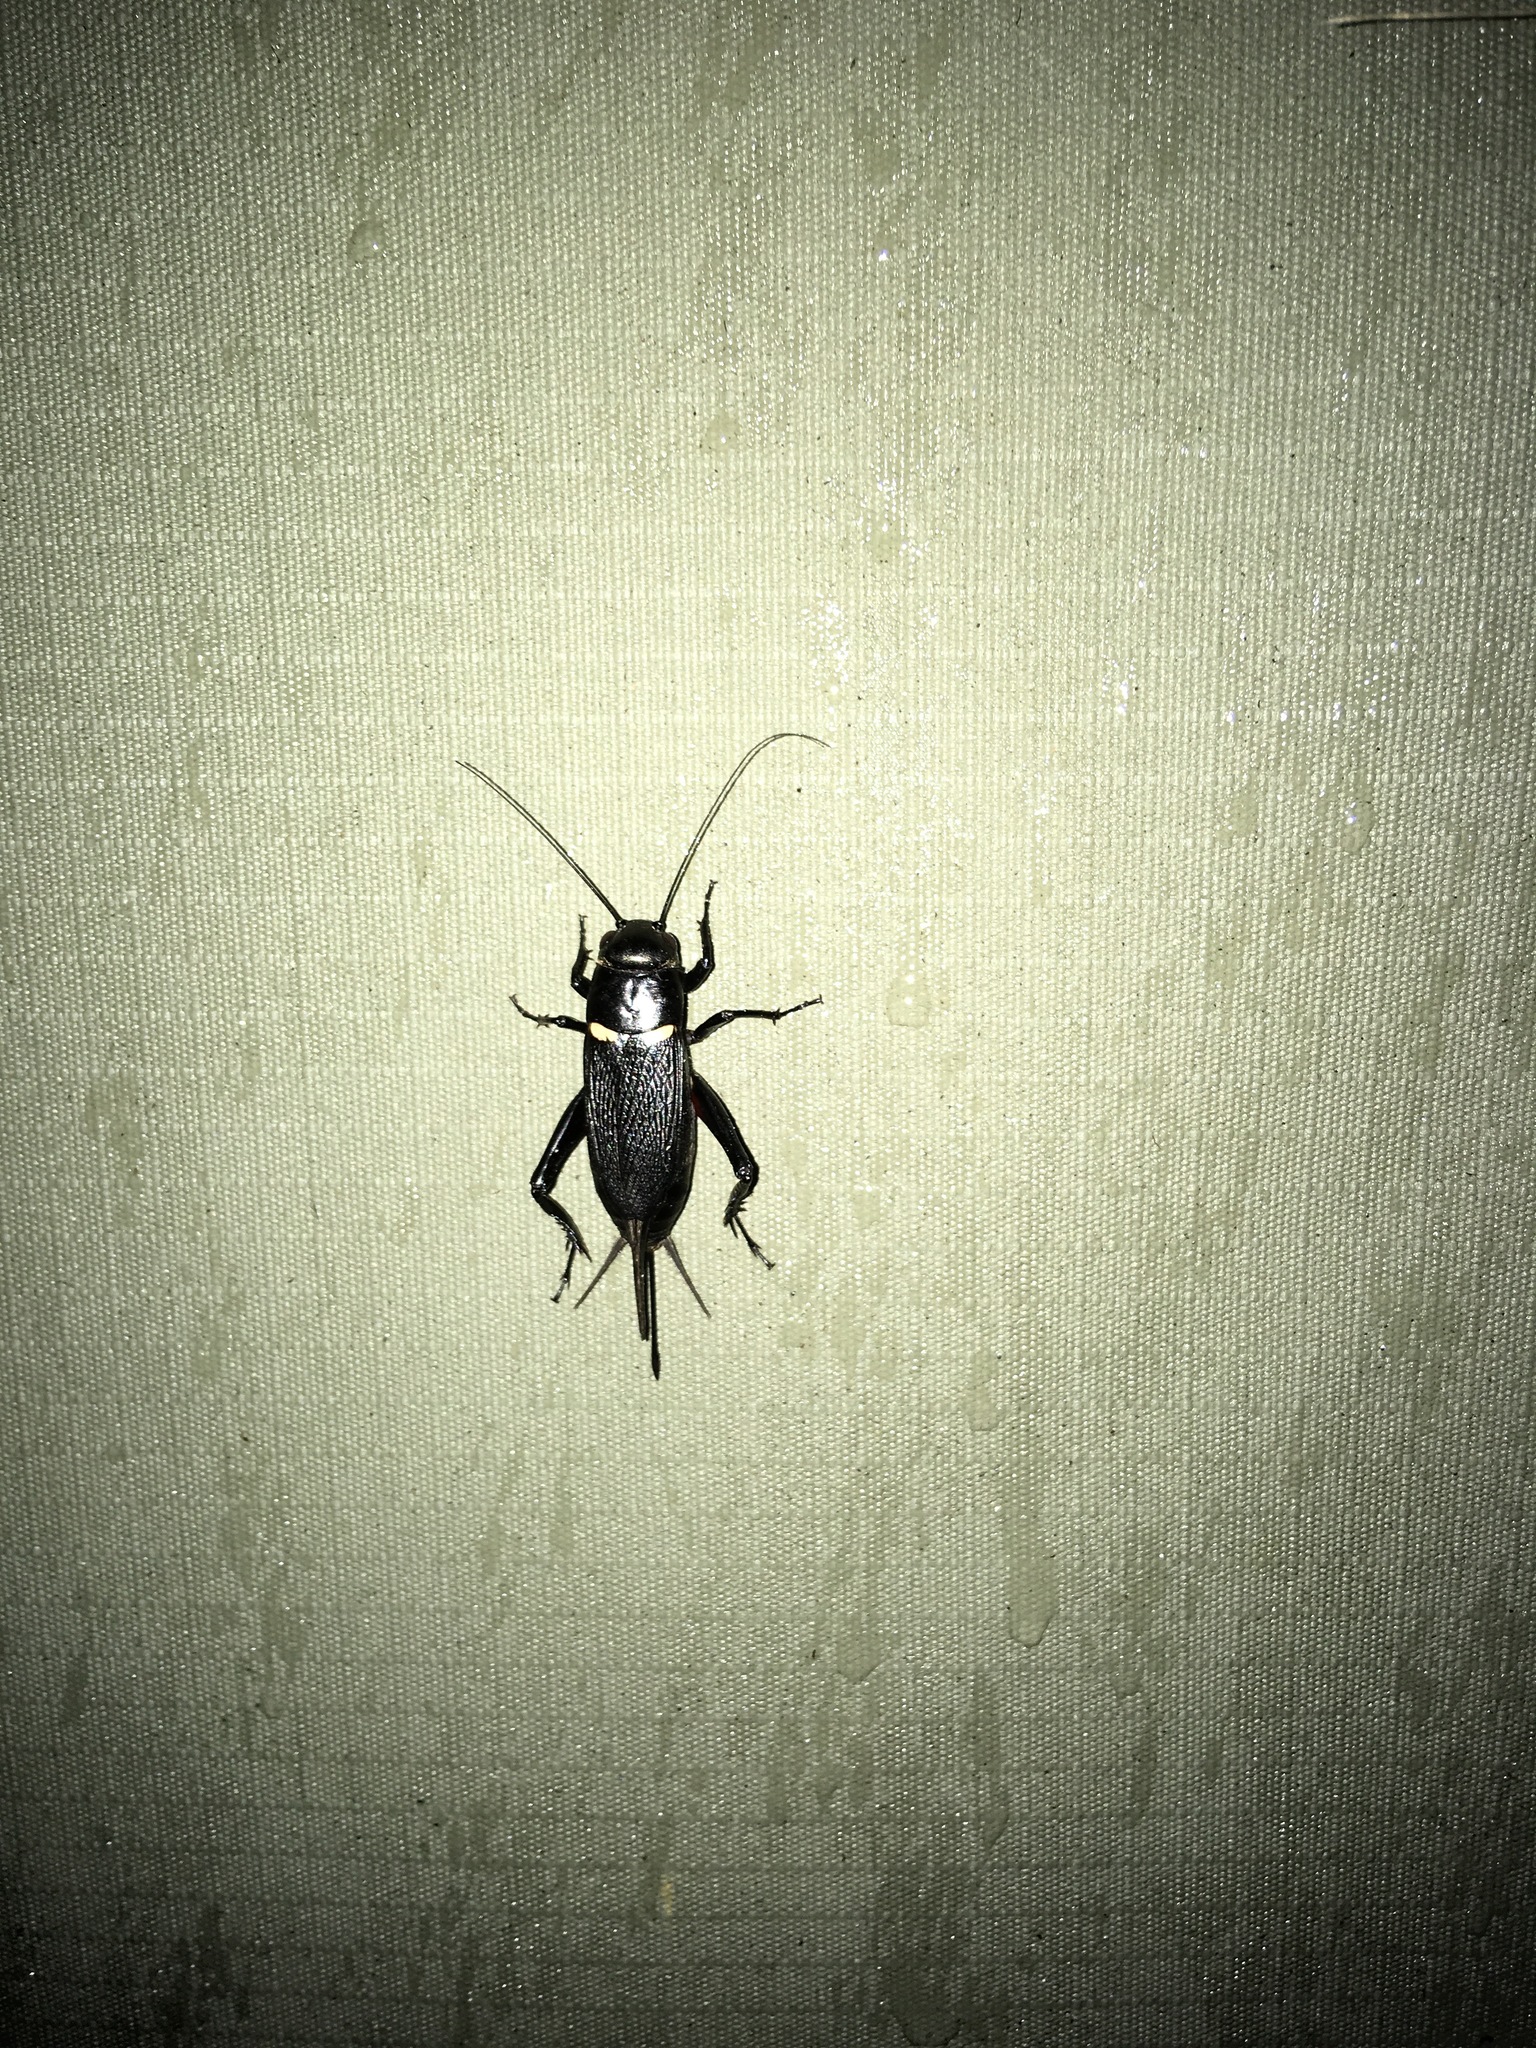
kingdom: Animalia
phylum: Arthropoda
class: Insecta
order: Orthoptera
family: Gryllidae
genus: Gryllus
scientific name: Gryllus bimaculatus
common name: Two-spotted cricket
